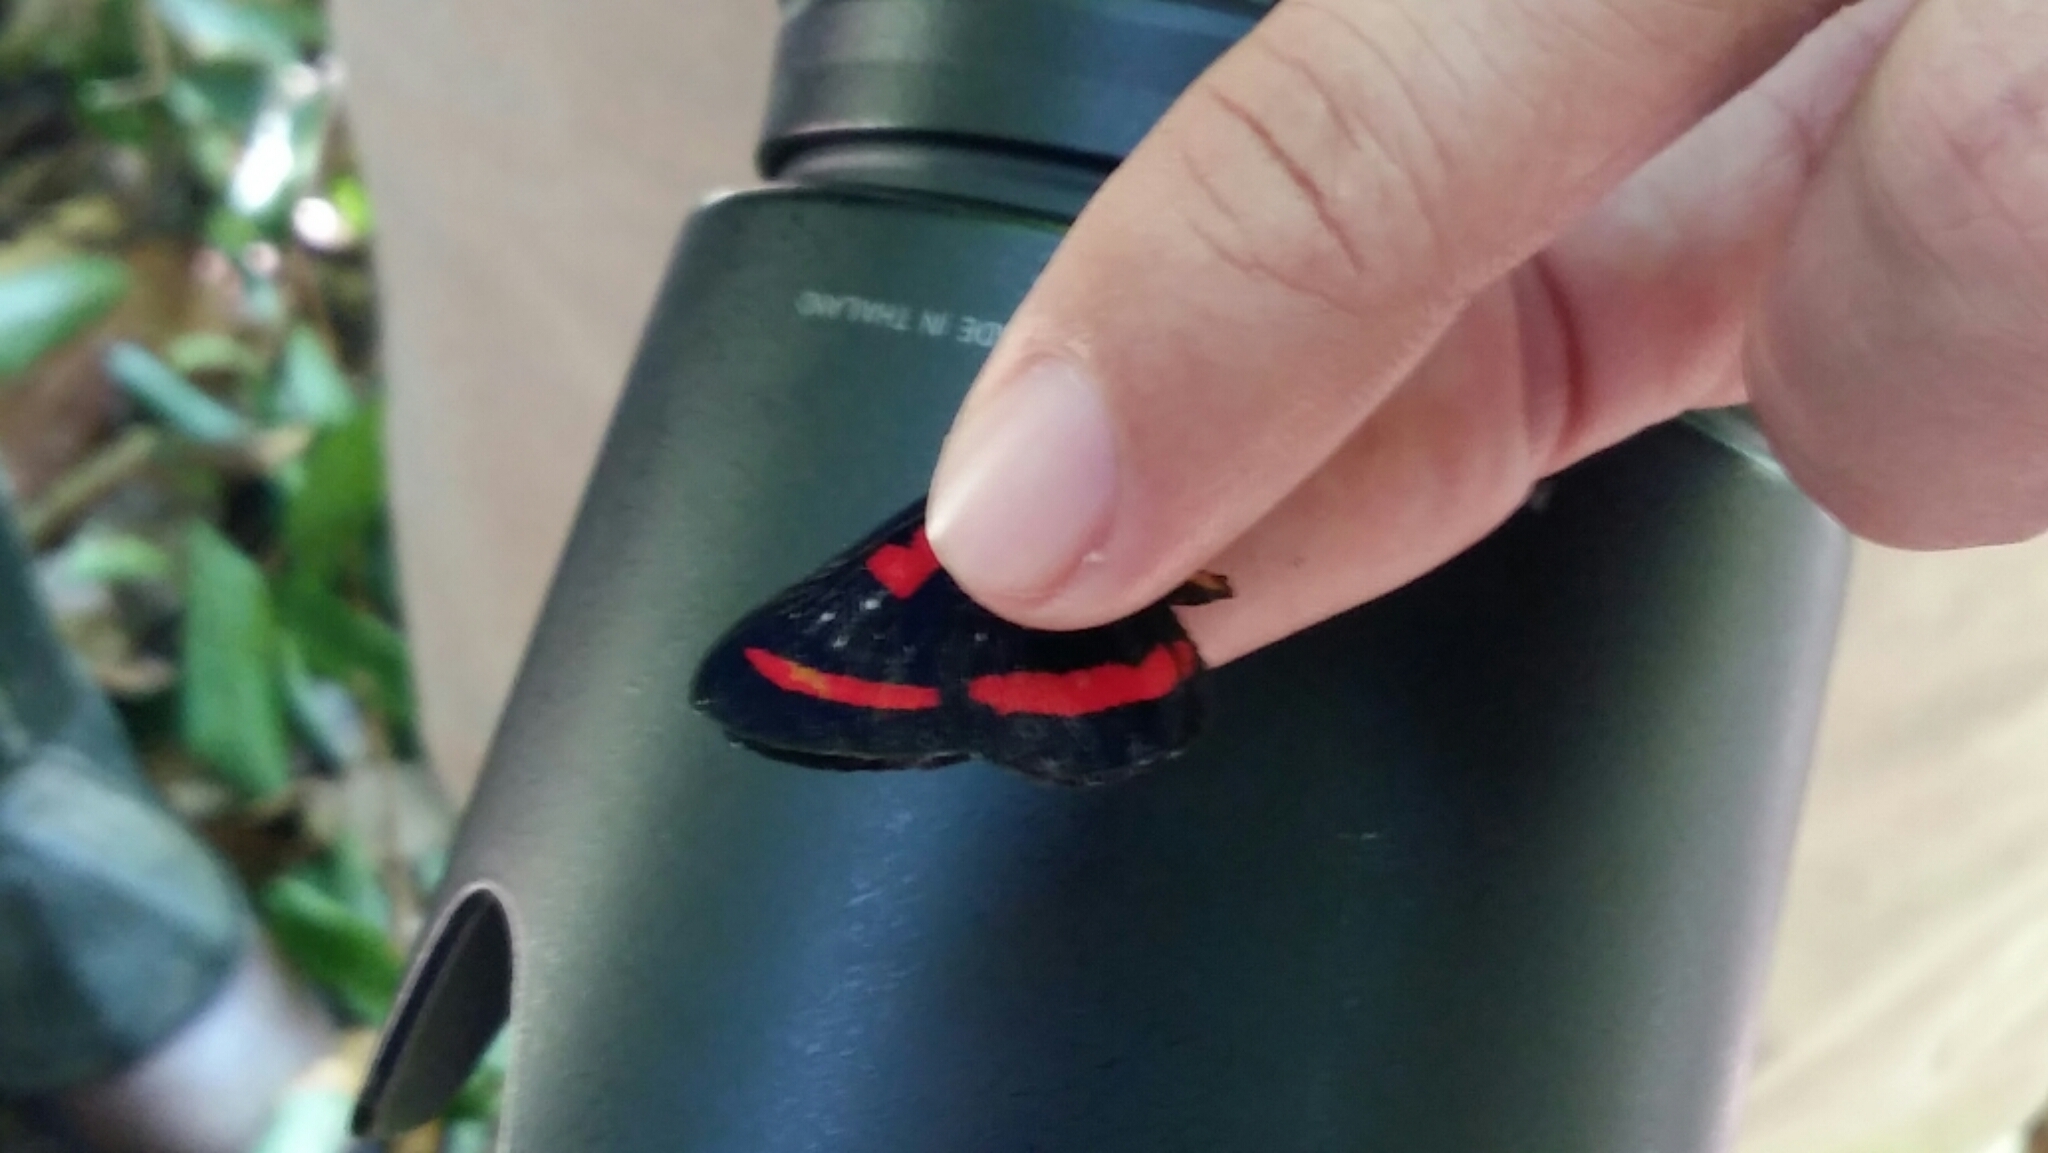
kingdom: Animalia
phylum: Arthropoda
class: Insecta
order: Lepidoptera
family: Riodinidae
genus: Amarynthis
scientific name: Amarynthis meneria
